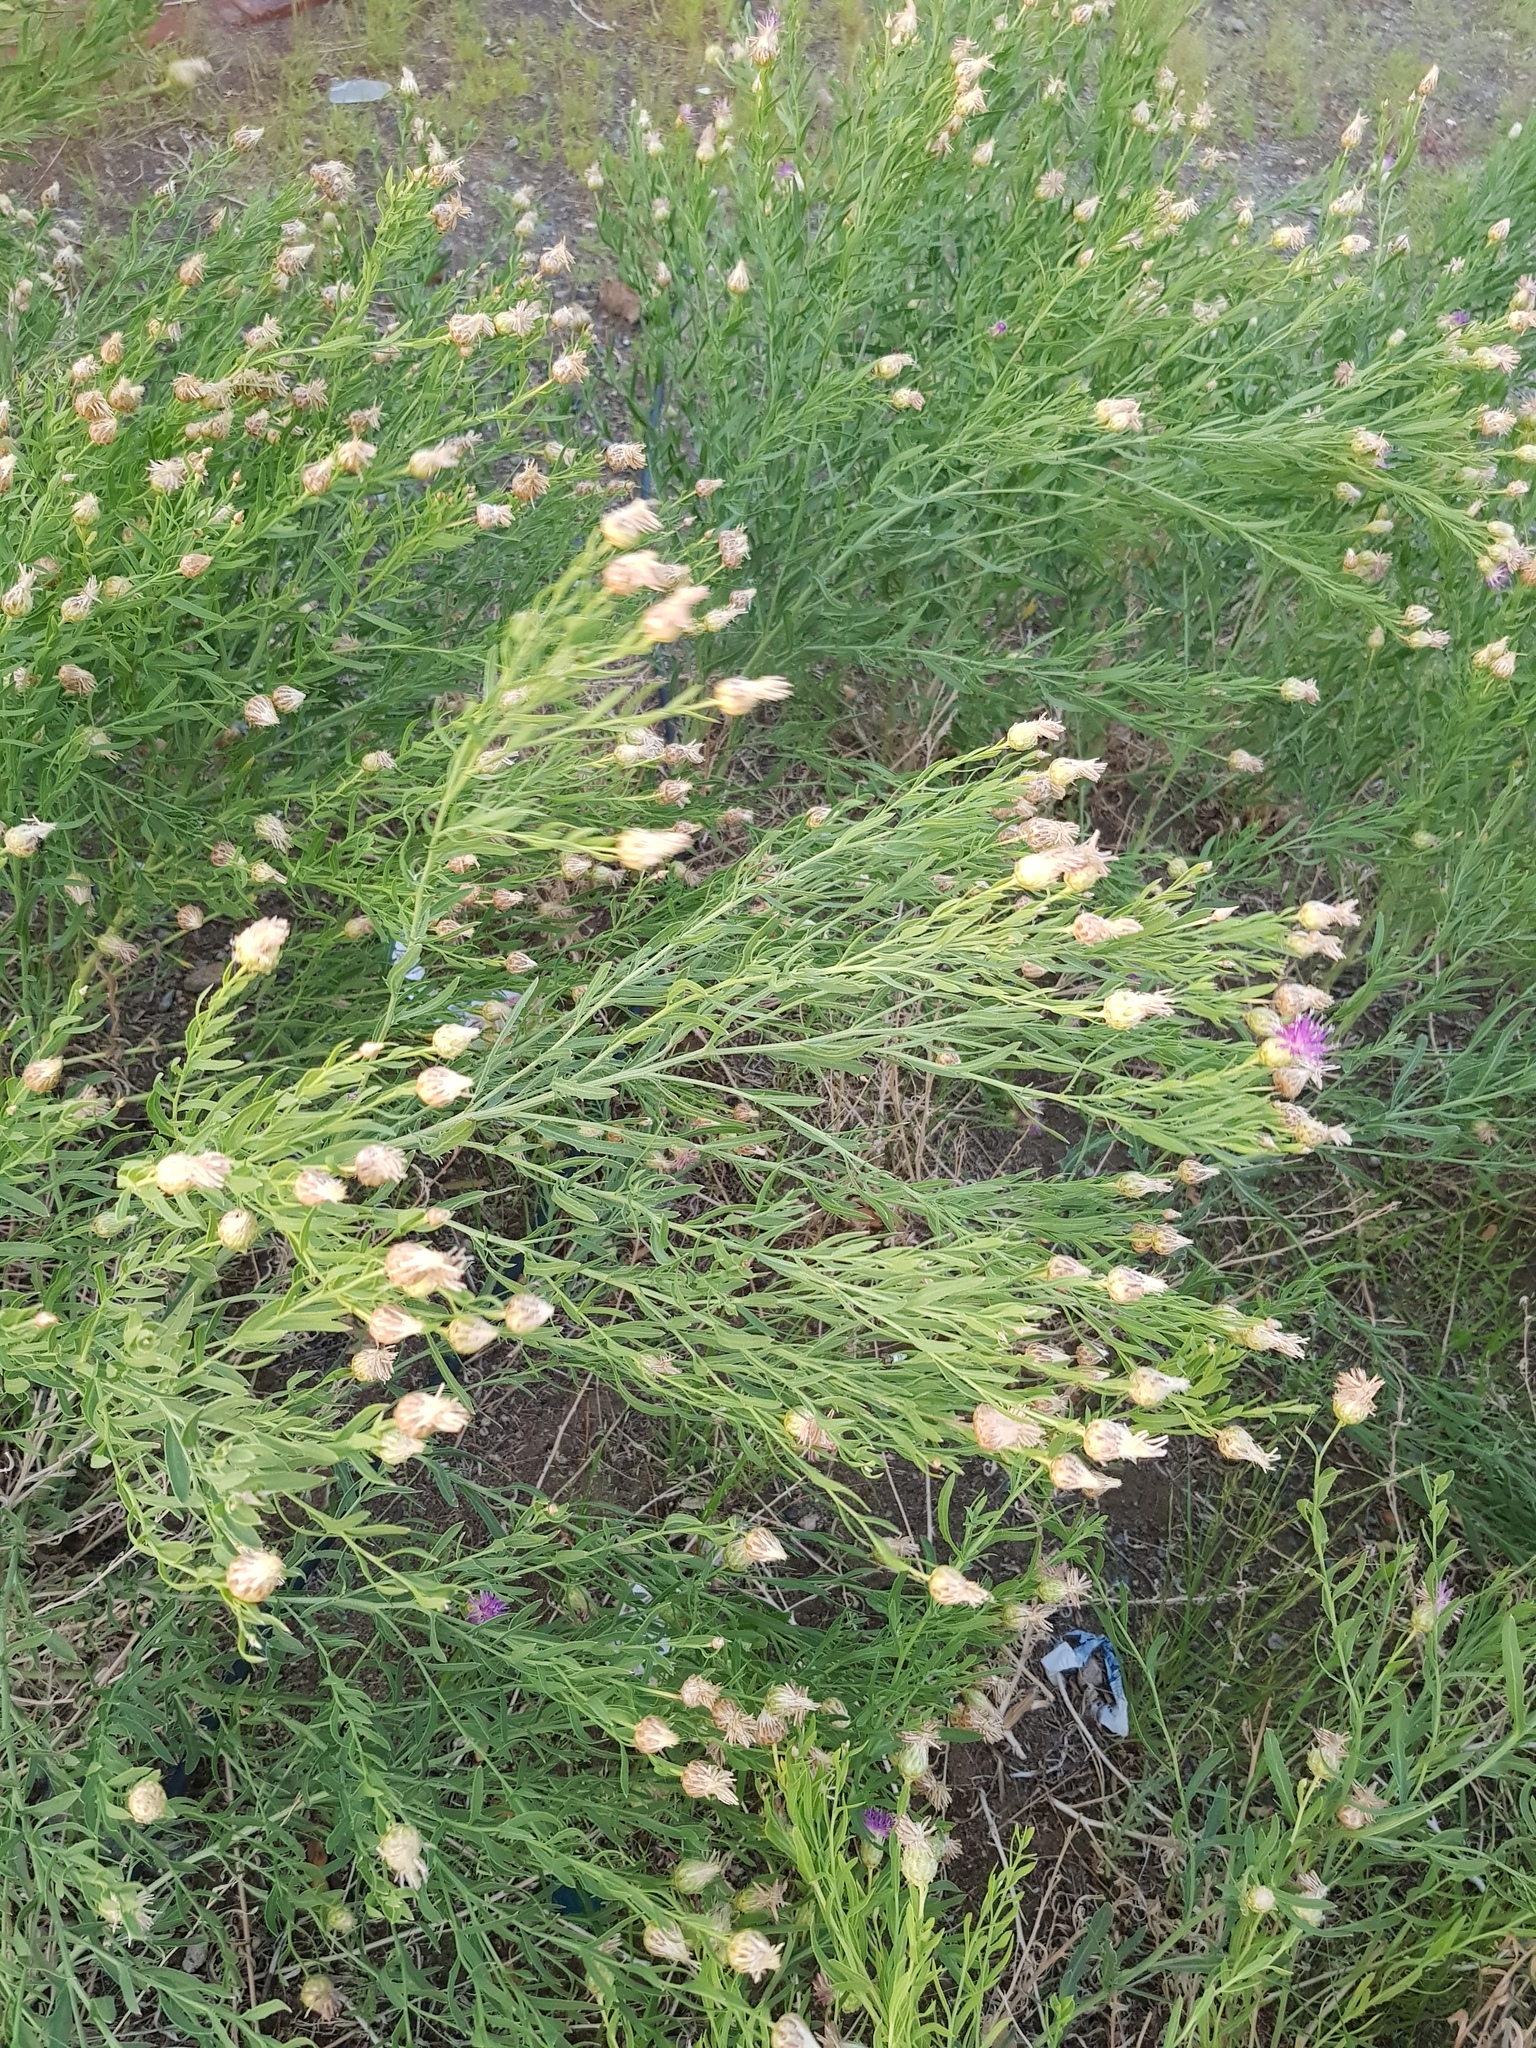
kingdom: Plantae
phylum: Tracheophyta
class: Magnoliopsida
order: Asterales
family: Asteraceae
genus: Leuzea
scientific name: Leuzea repens
